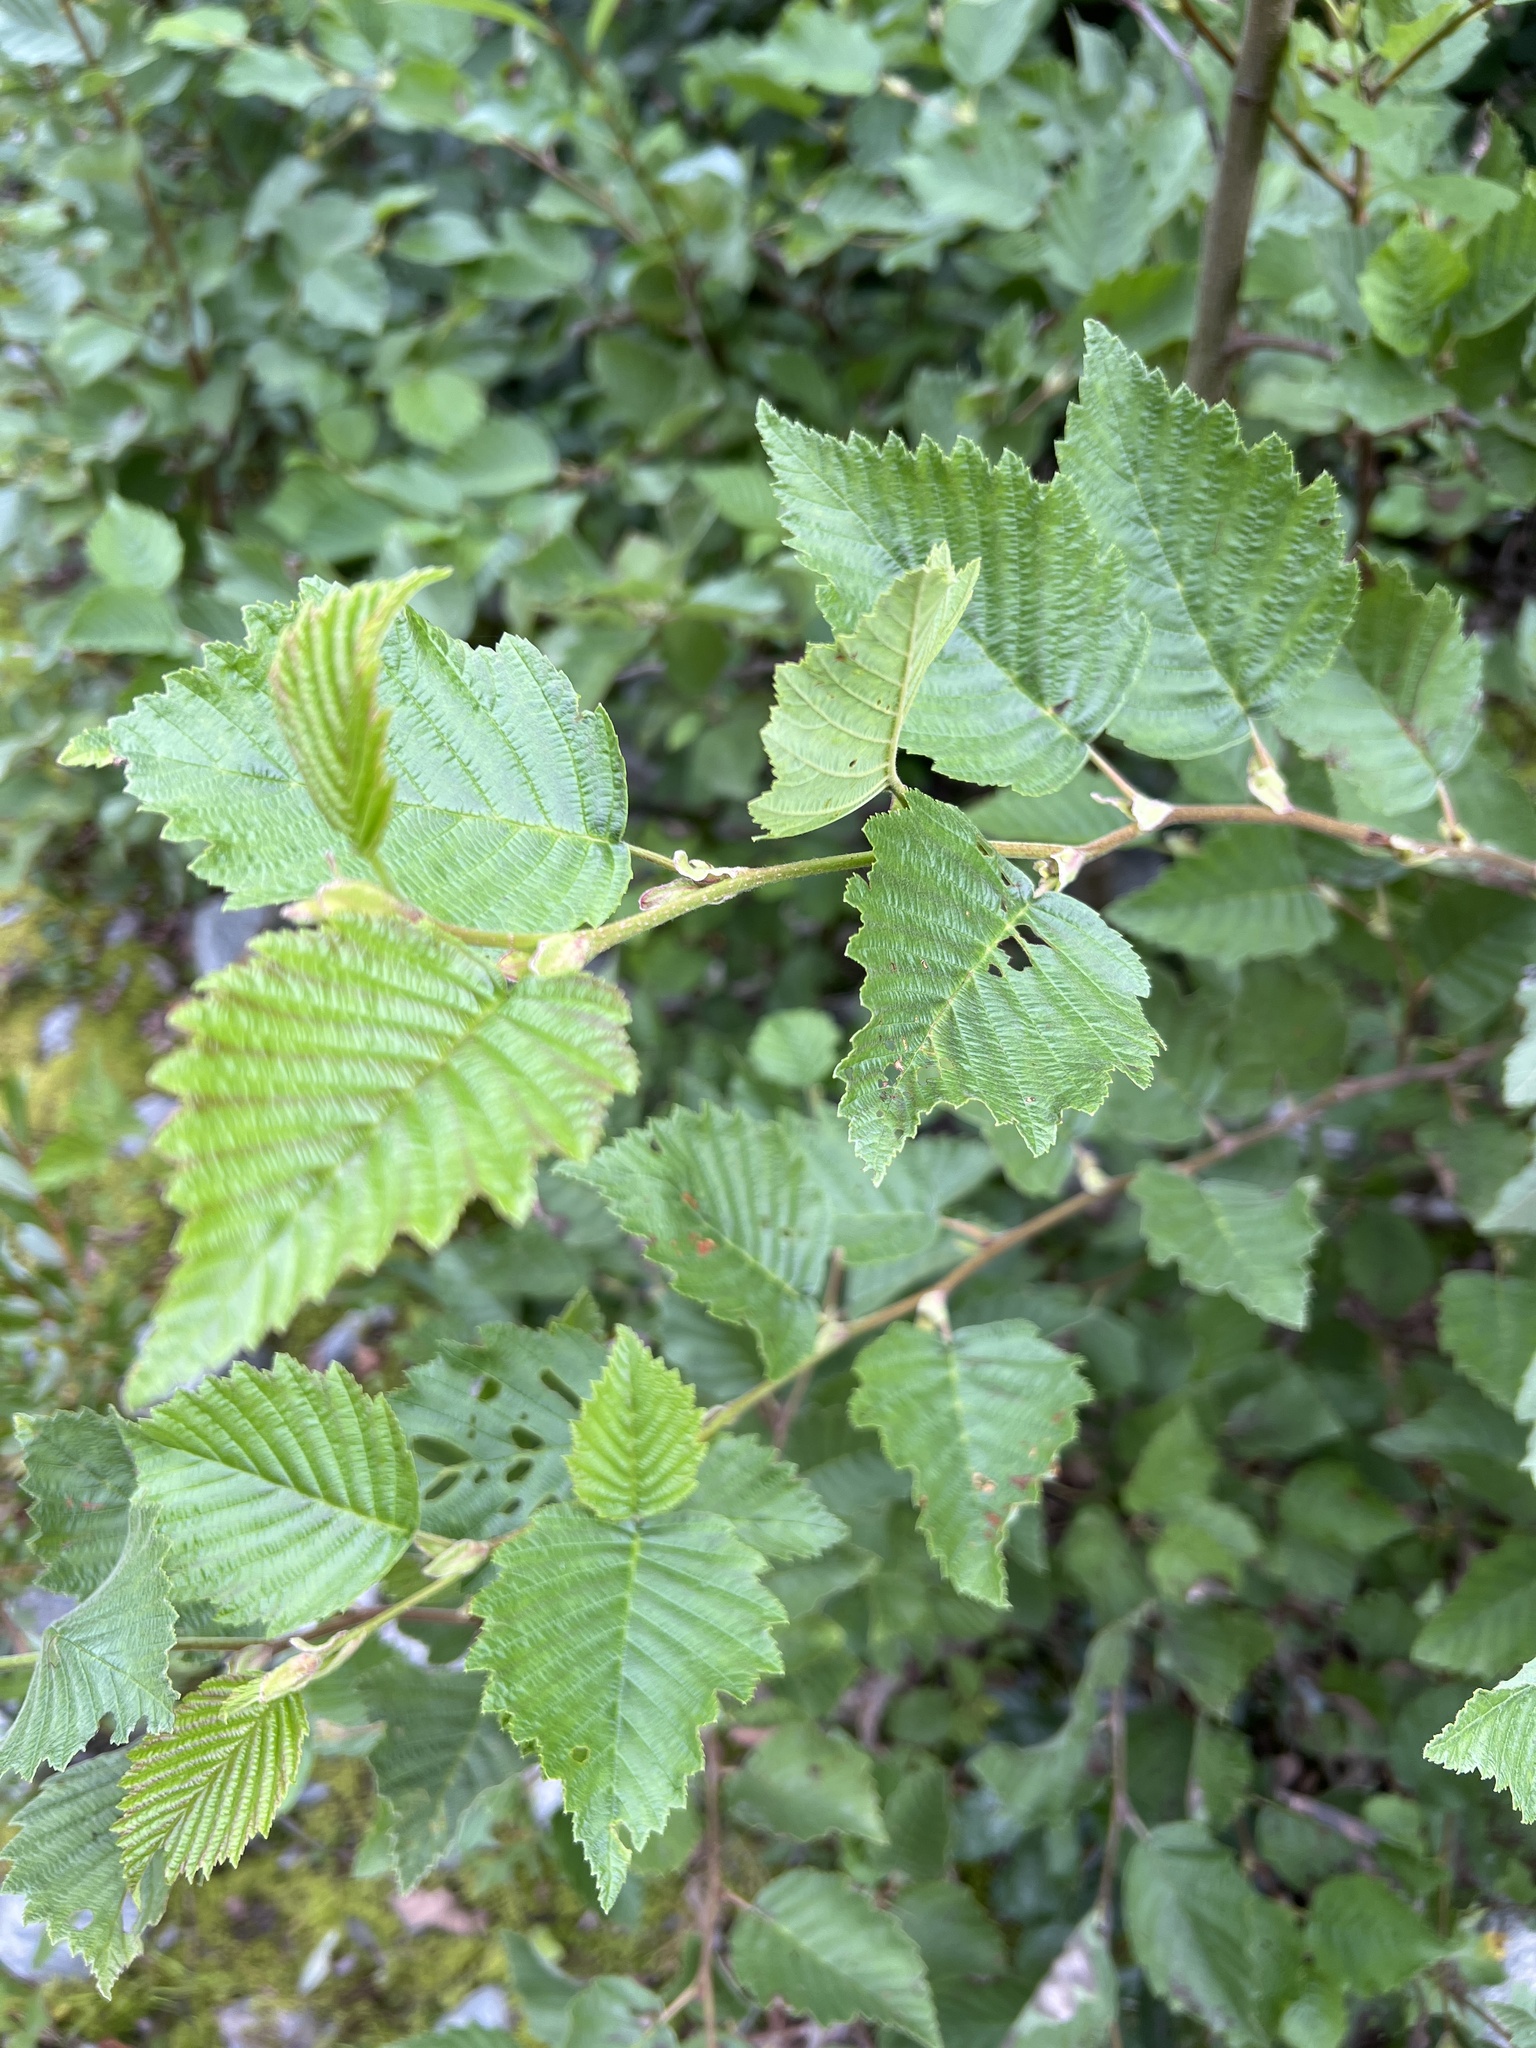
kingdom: Plantae
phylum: Tracheophyta
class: Magnoliopsida
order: Fagales
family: Betulaceae
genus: Alnus
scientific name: Alnus incana
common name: Grey alder
